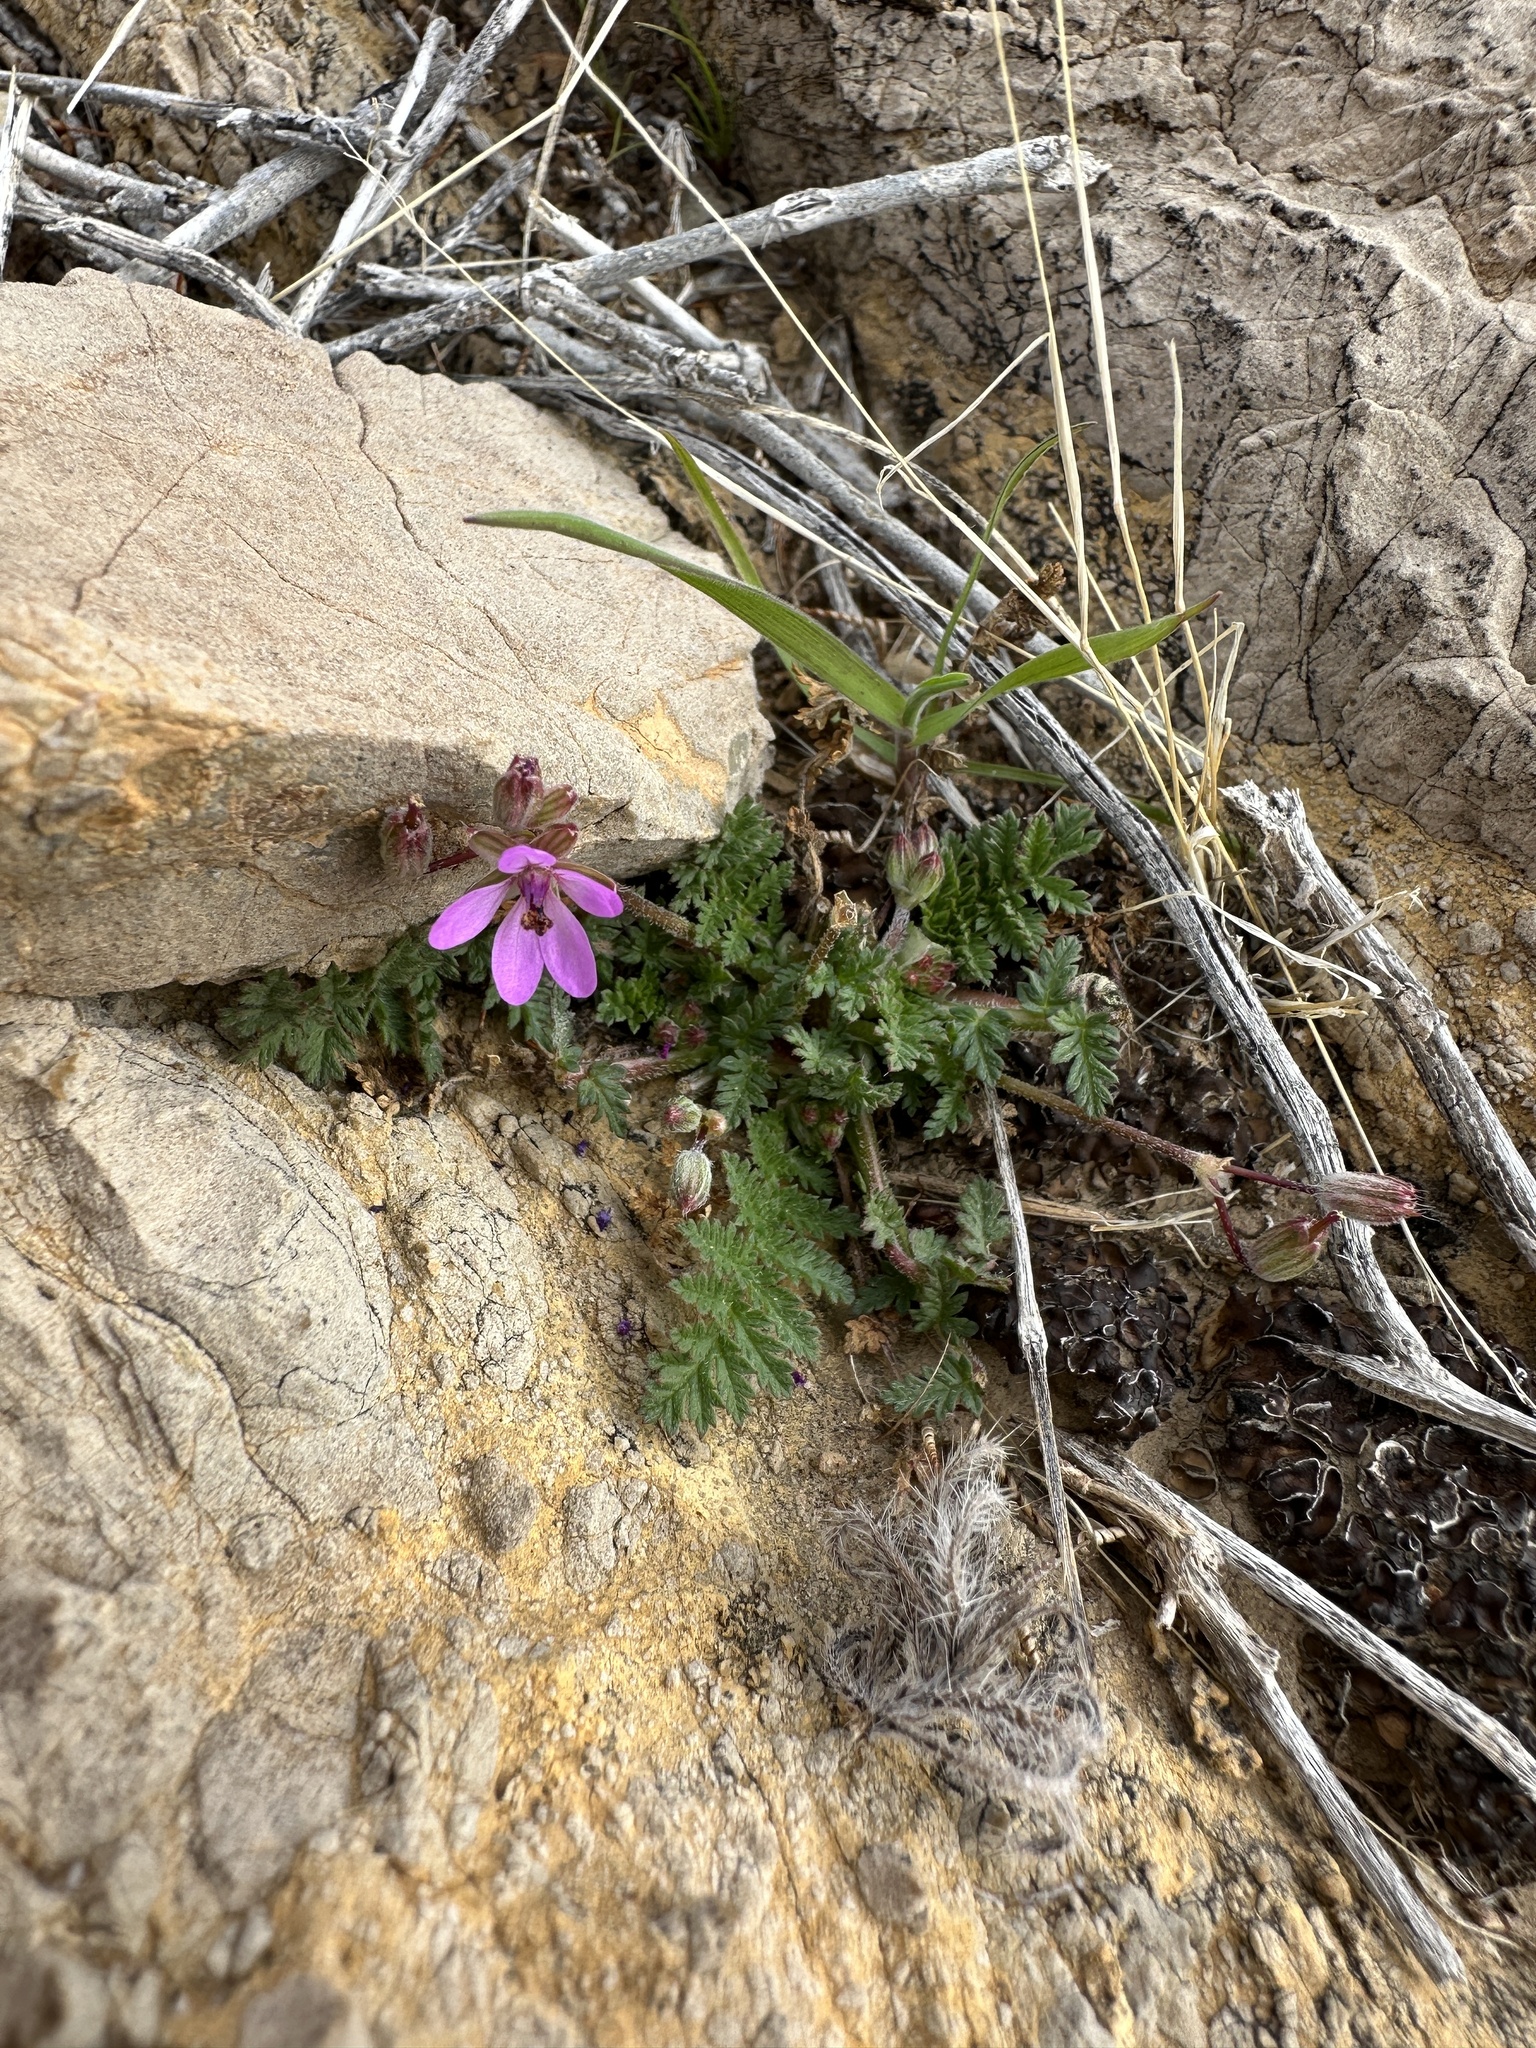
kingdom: Plantae
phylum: Tracheophyta
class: Magnoliopsida
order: Geraniales
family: Geraniaceae
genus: Erodium
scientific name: Erodium cicutarium
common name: Common stork's-bill
